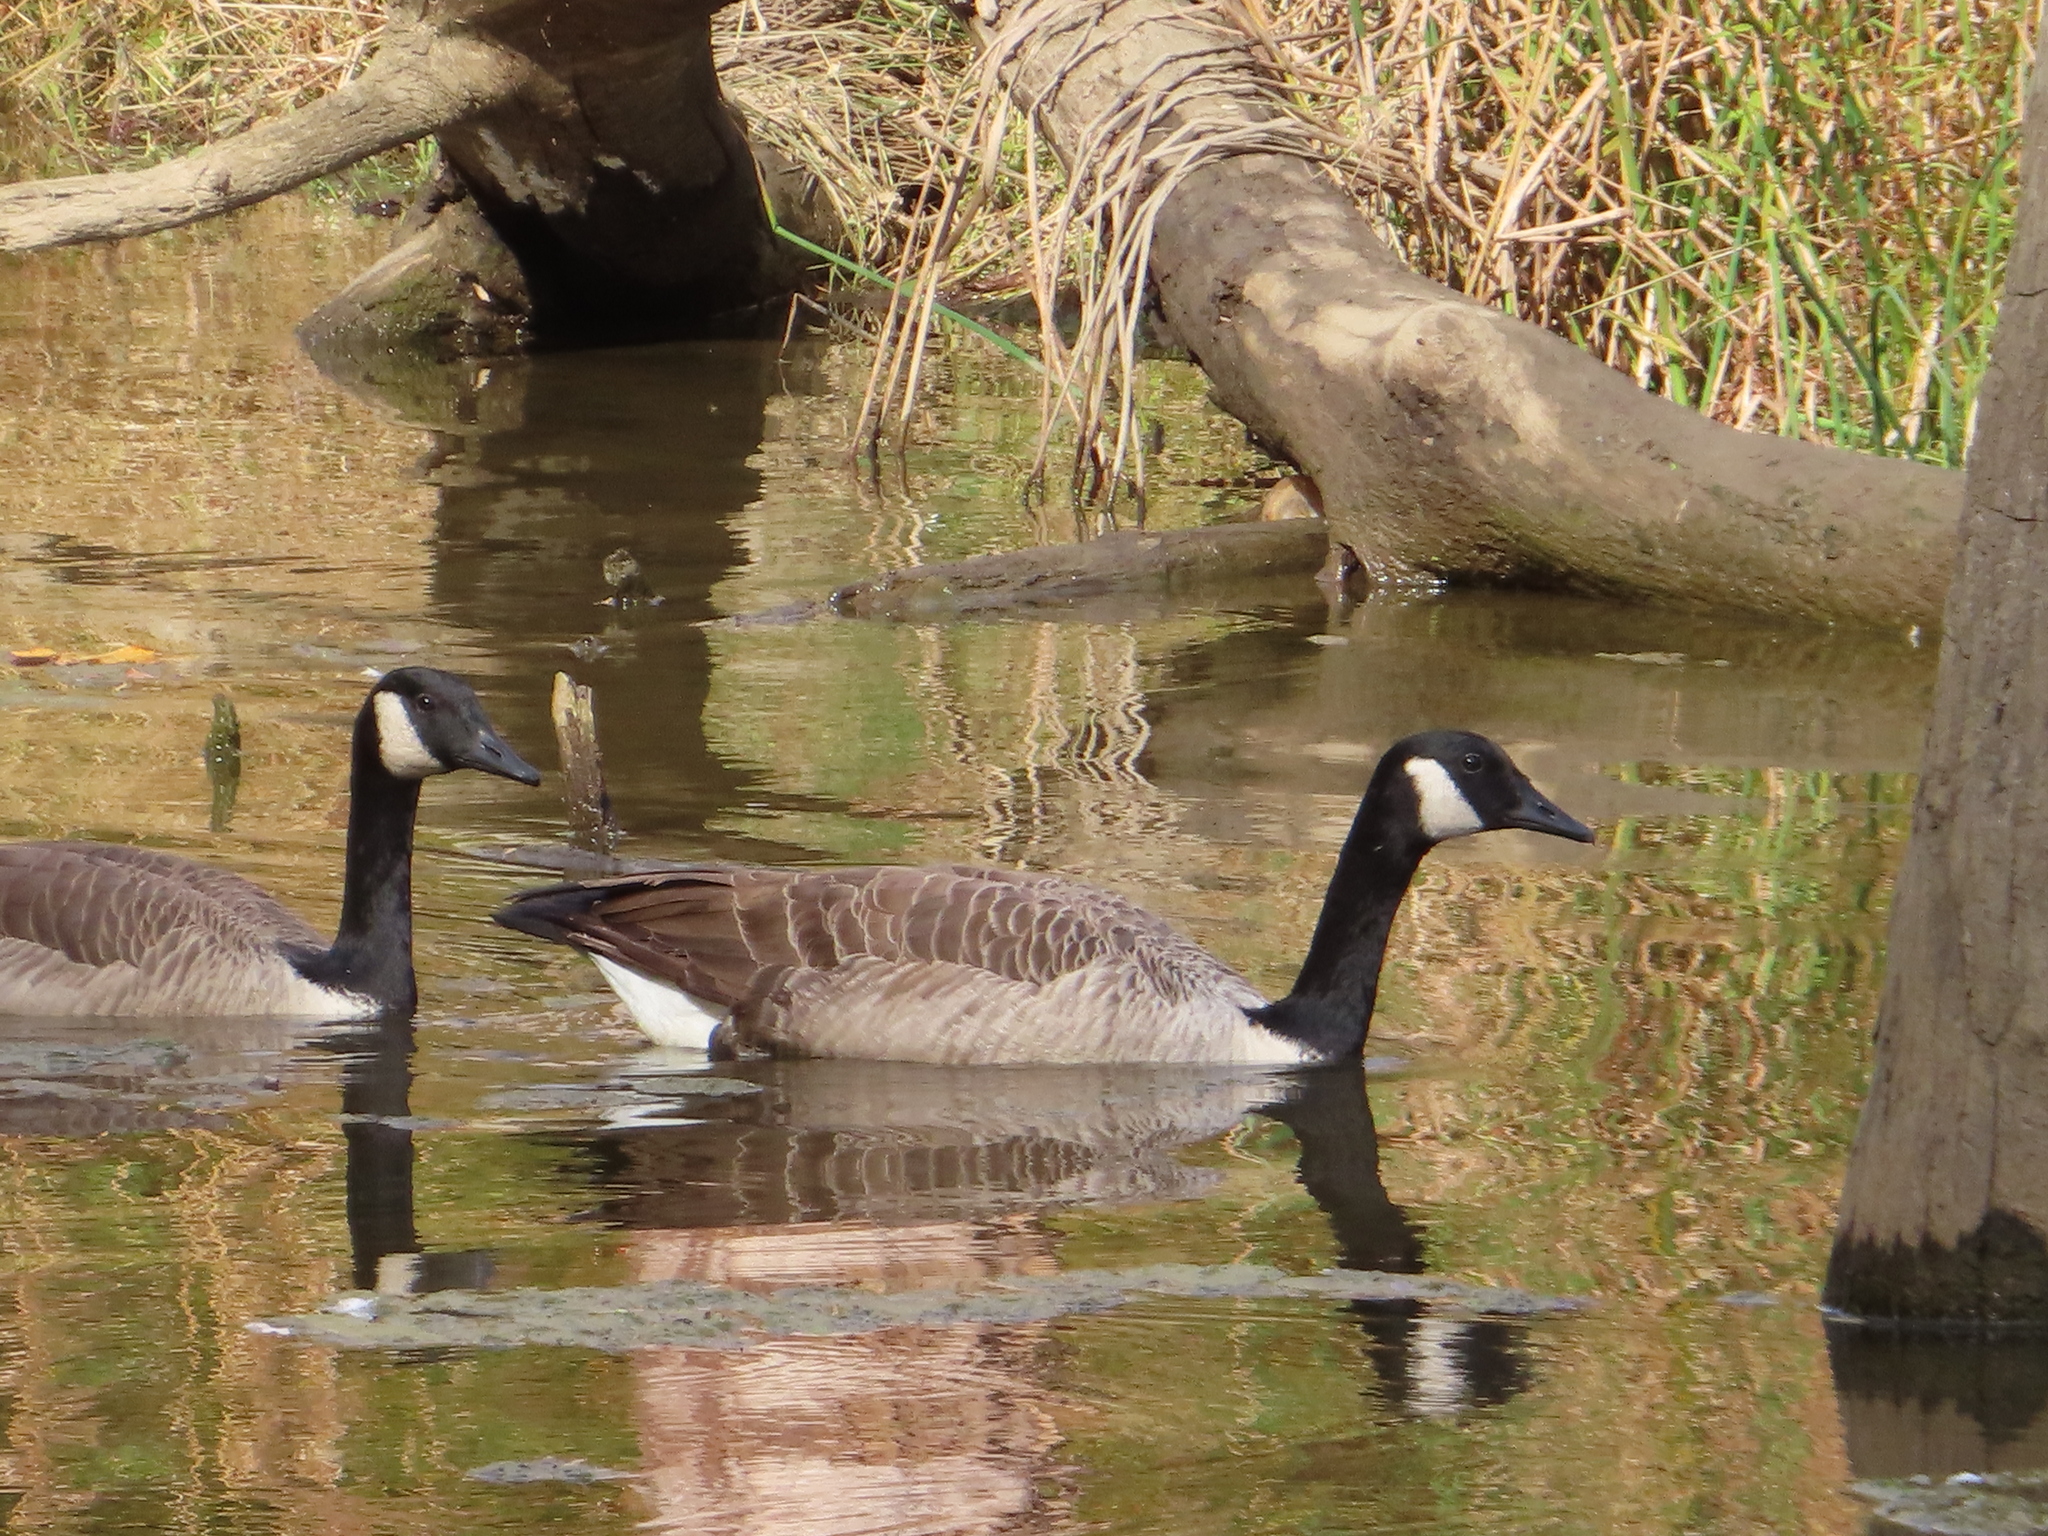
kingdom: Animalia
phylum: Chordata
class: Aves
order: Anseriformes
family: Anatidae
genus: Branta
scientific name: Branta canadensis
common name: Canada goose
